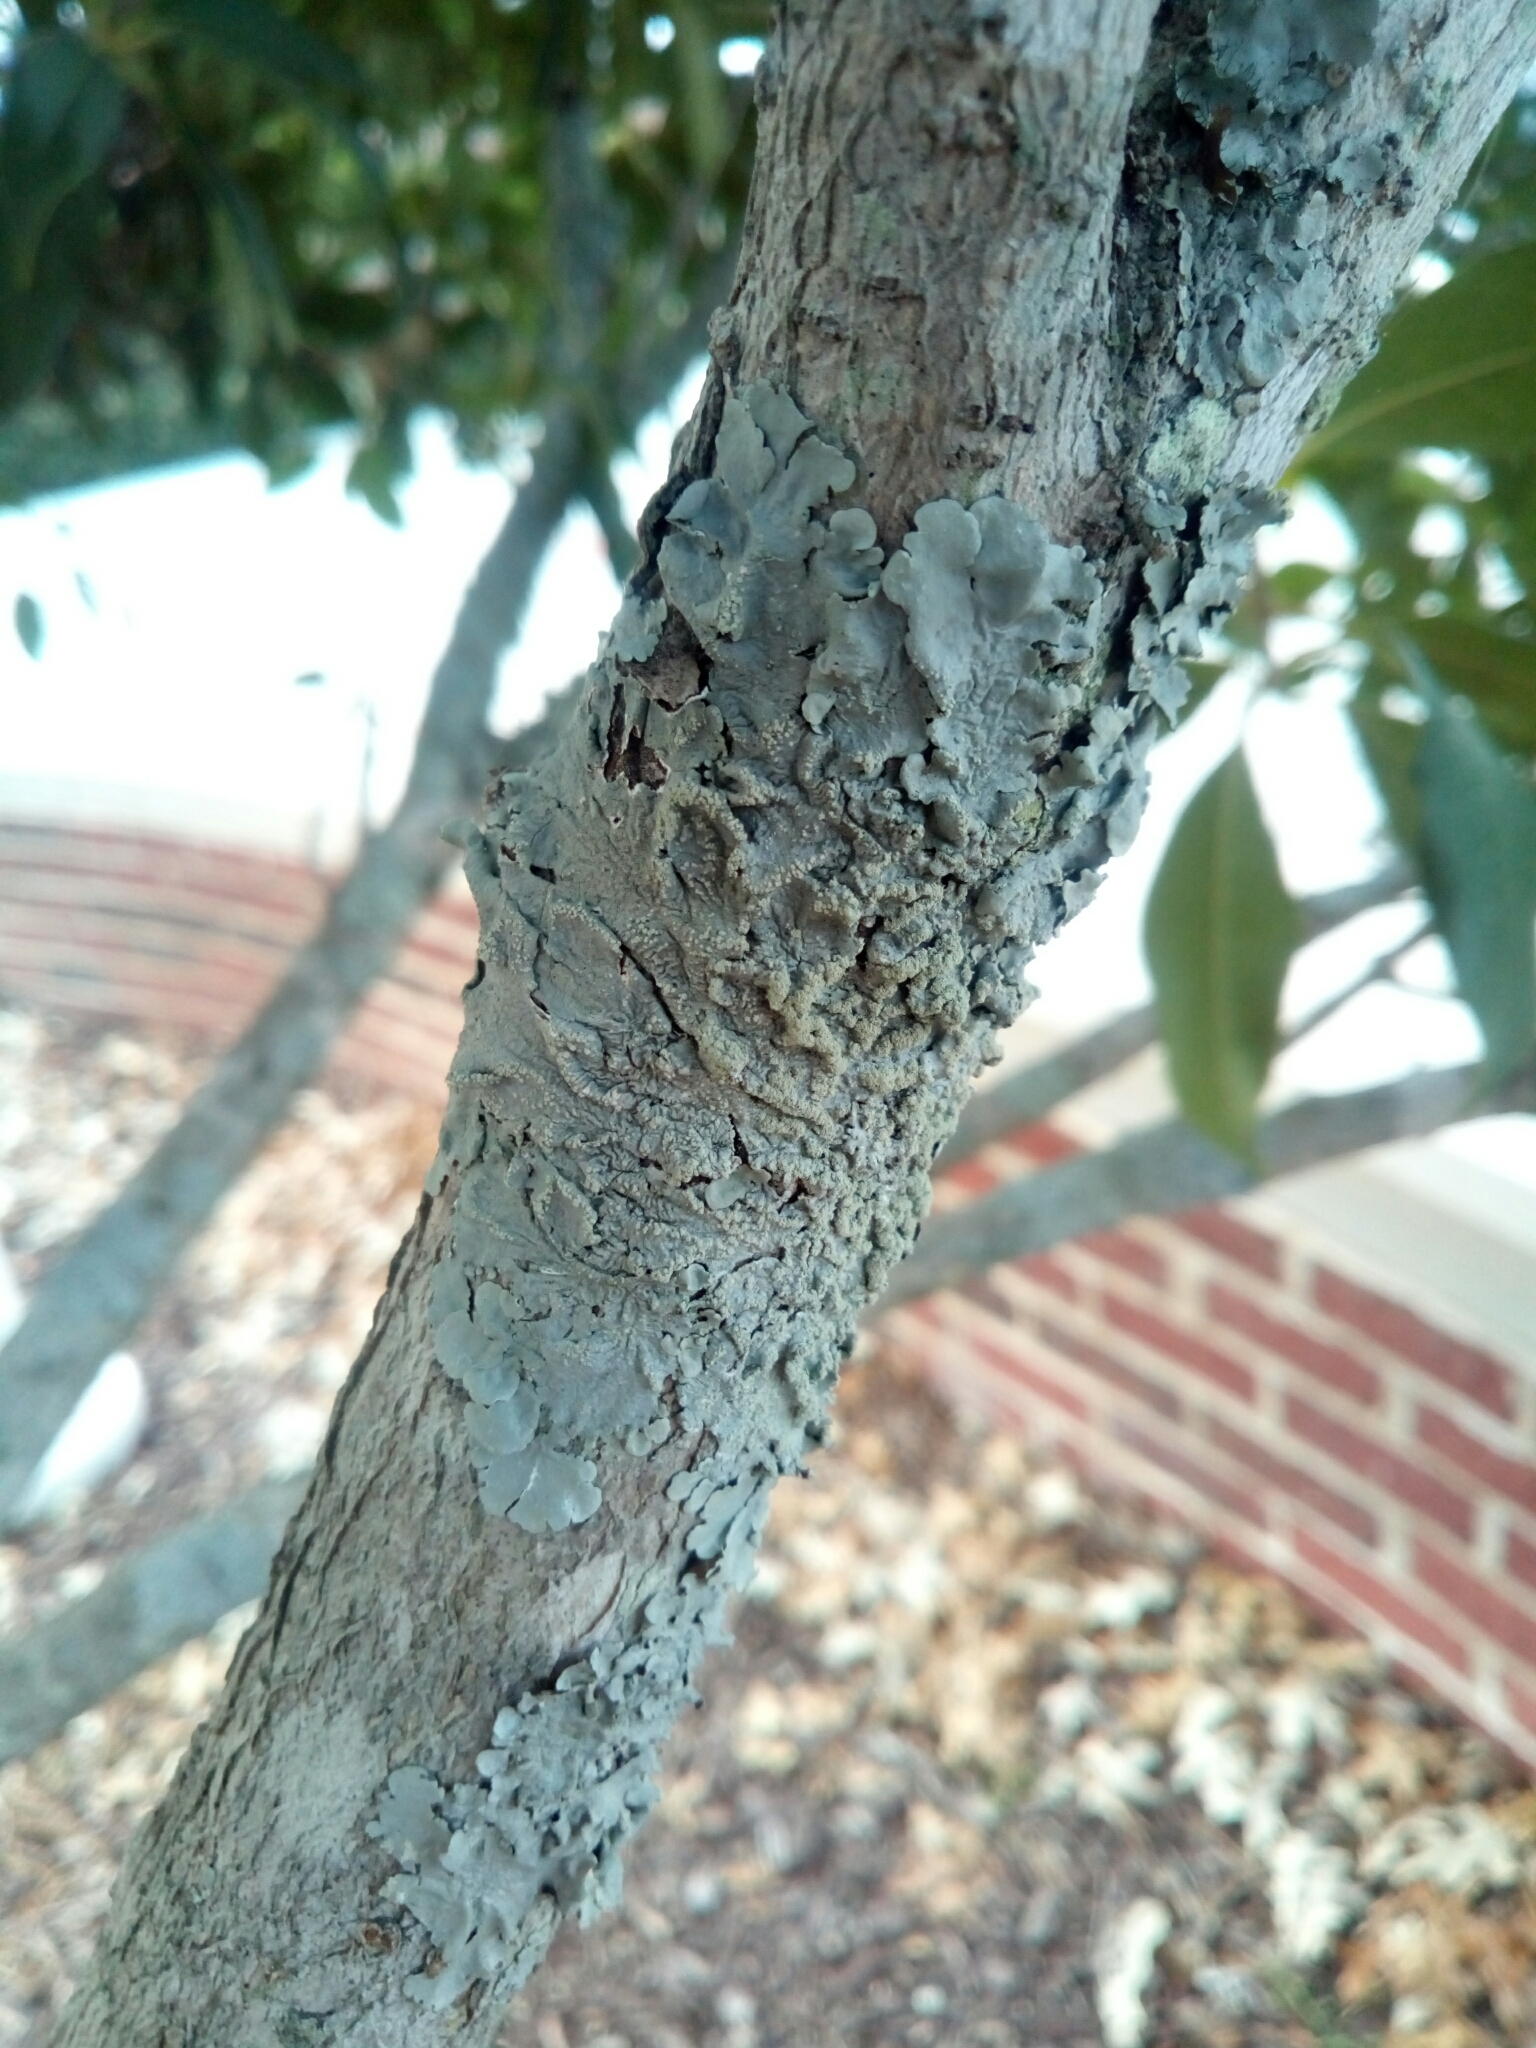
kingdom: Fungi
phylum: Ascomycota
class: Lecanoromycetes
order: Lecanorales
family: Parmeliaceae
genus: Canoparmelia
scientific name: Canoparmelia texana
